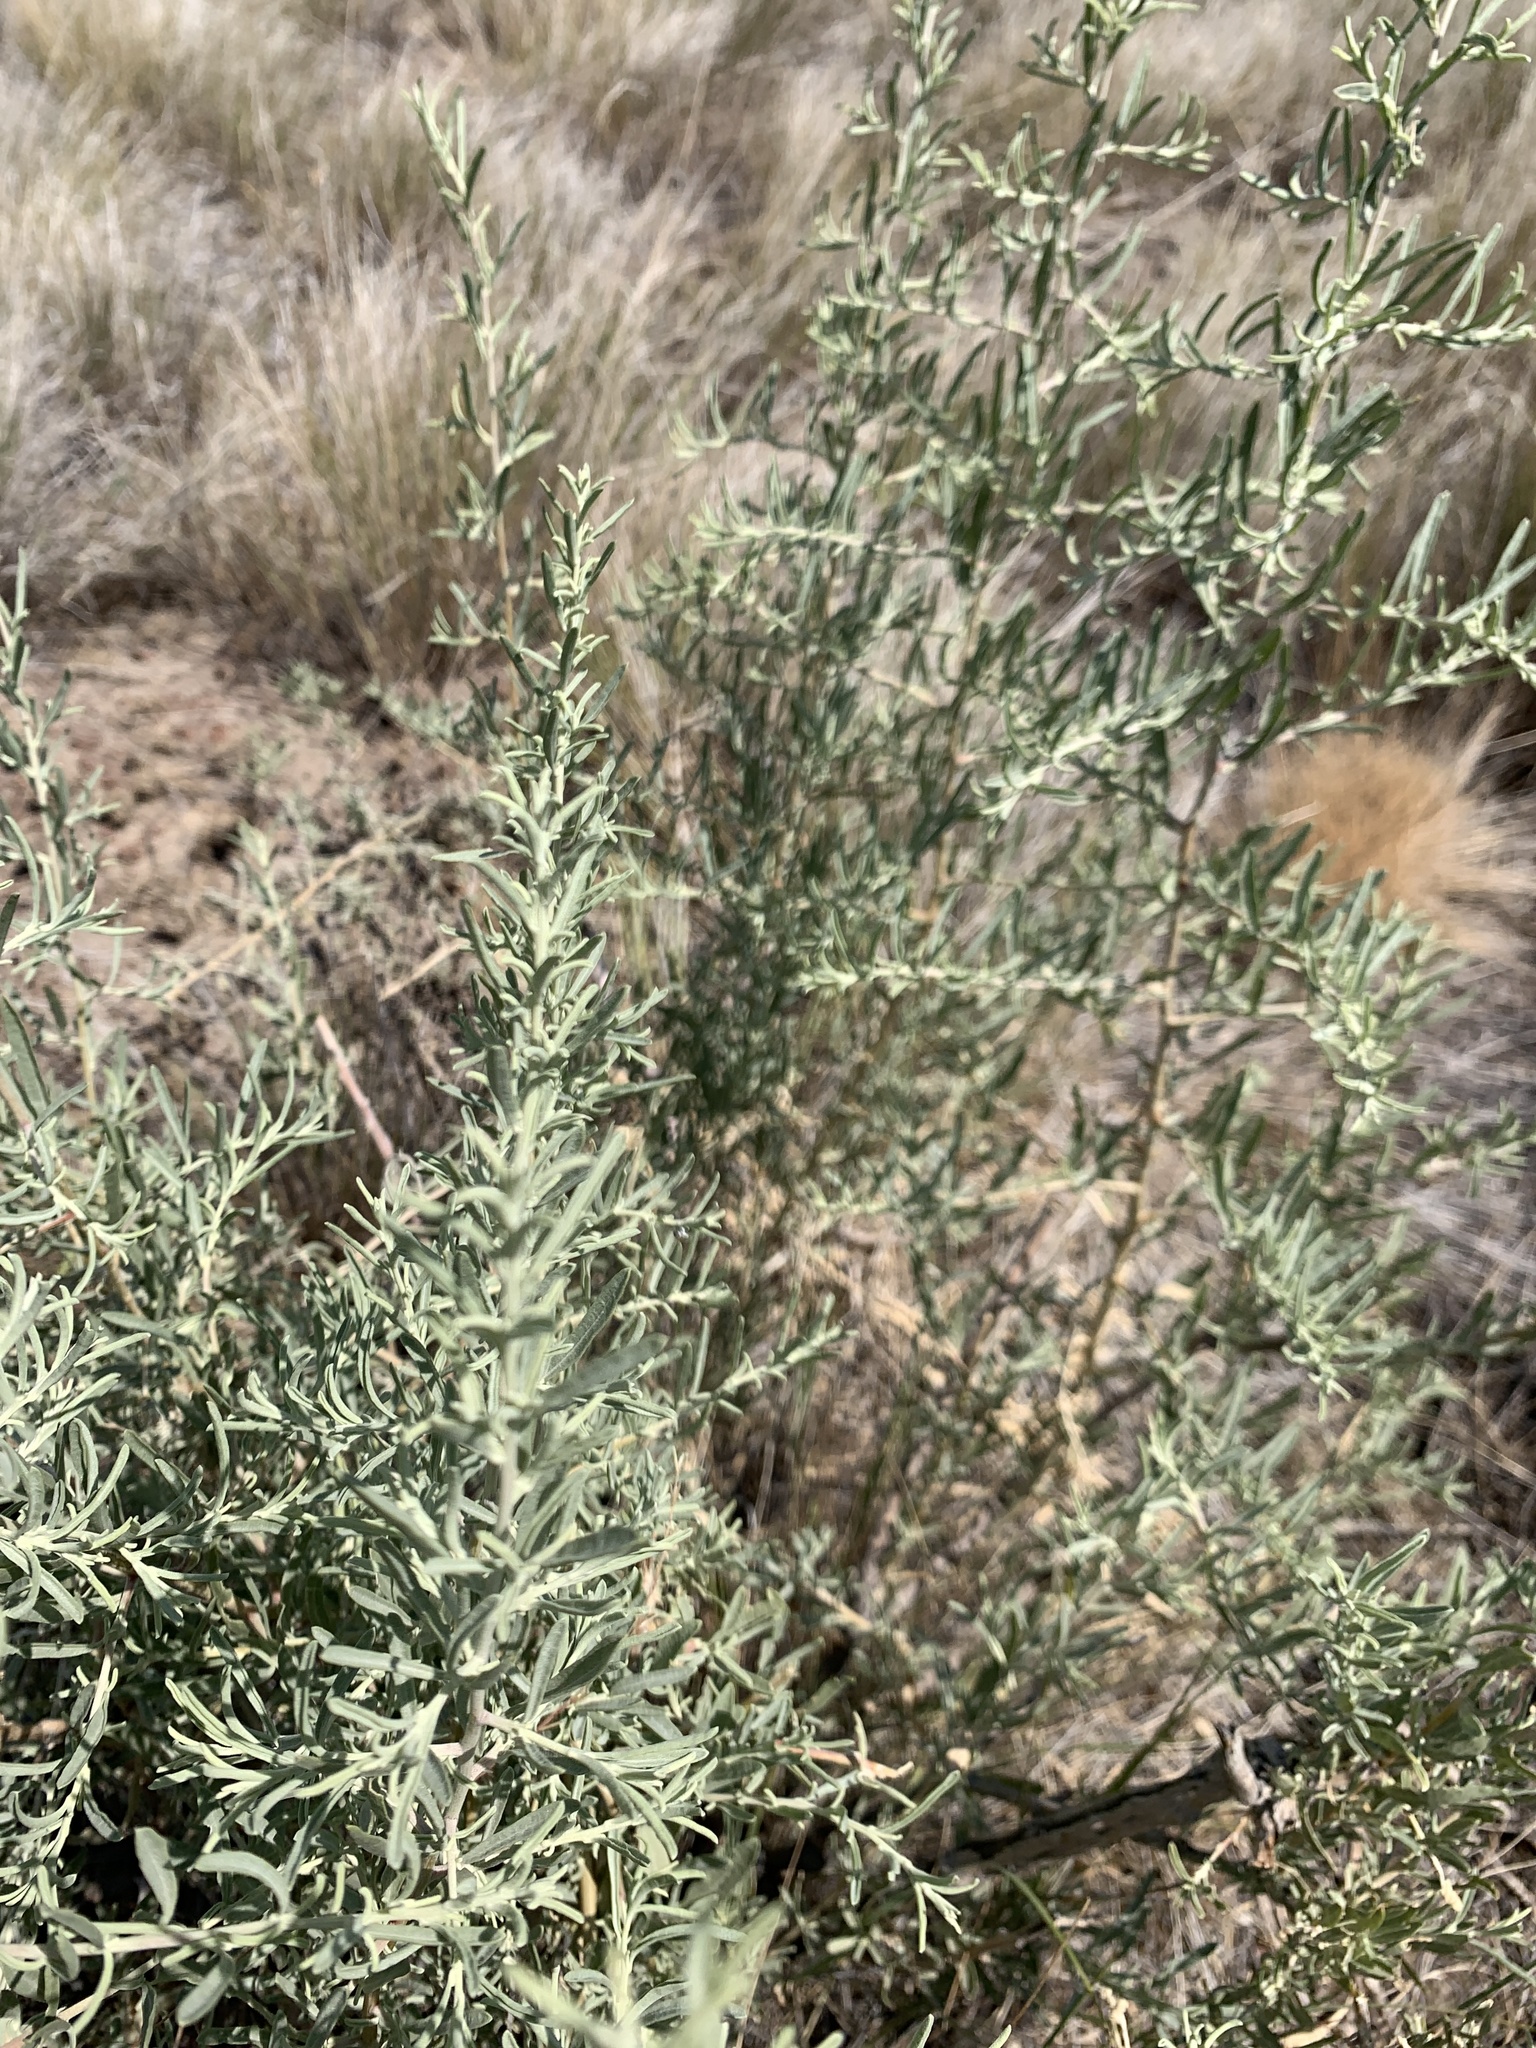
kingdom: Plantae
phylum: Tracheophyta
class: Magnoliopsida
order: Caryophyllales
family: Amaranthaceae
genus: Atriplex
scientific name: Atriplex canescens
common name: Four-wing saltbush
